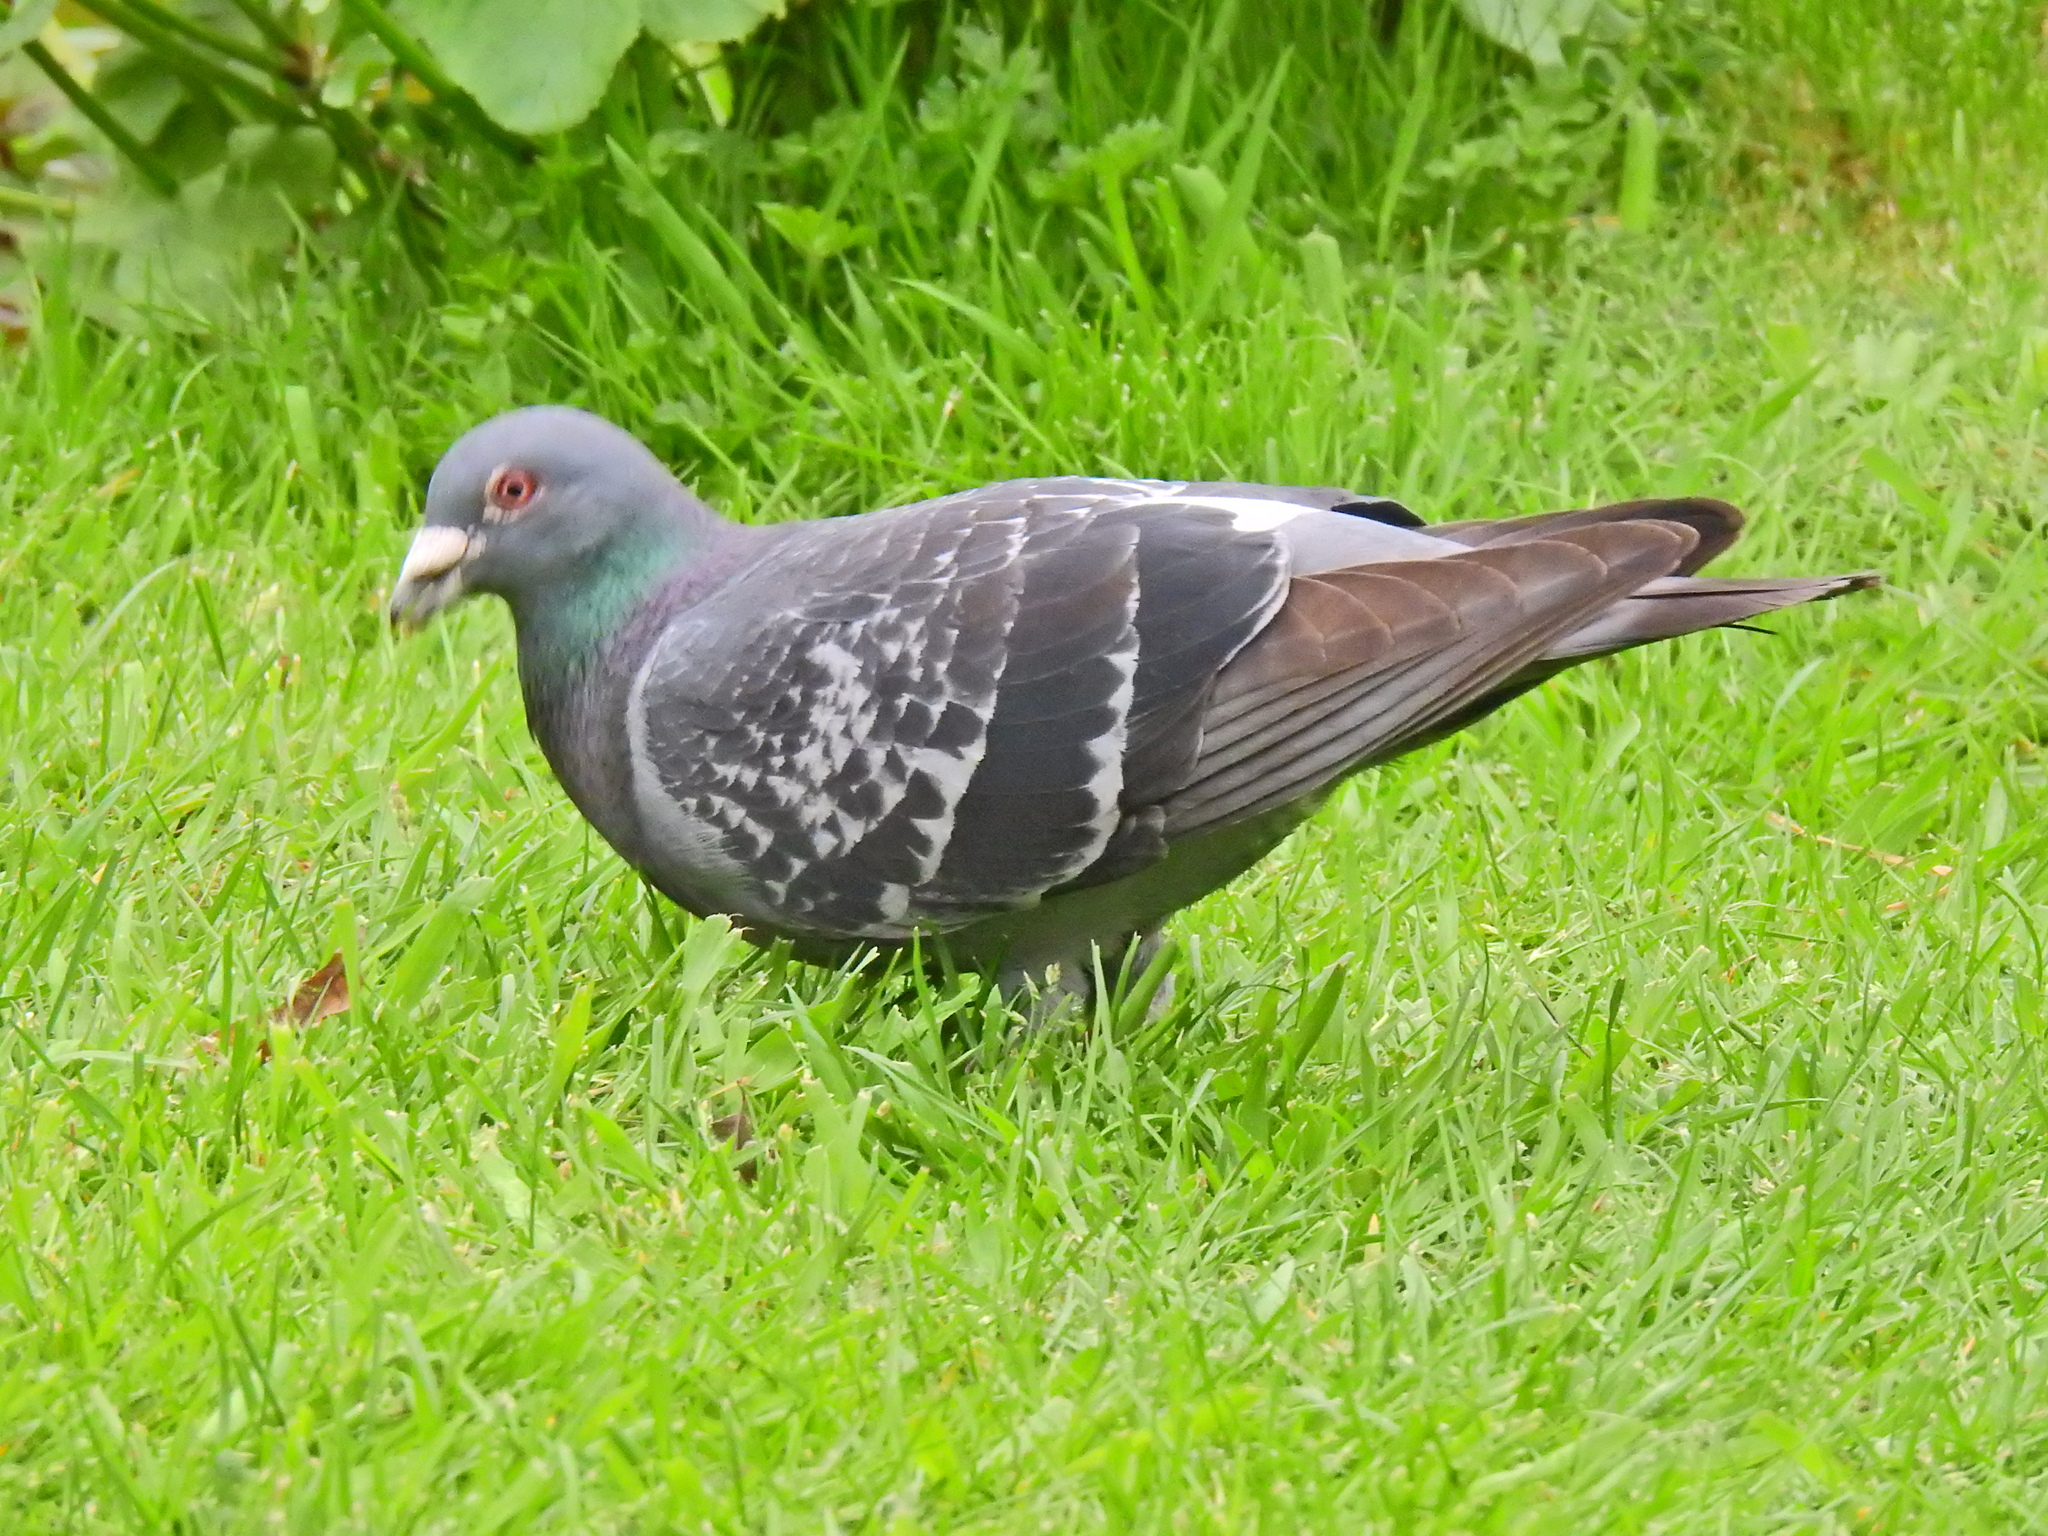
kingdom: Animalia
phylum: Chordata
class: Aves
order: Columbiformes
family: Columbidae
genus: Columba
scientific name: Columba livia
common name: Rock pigeon
